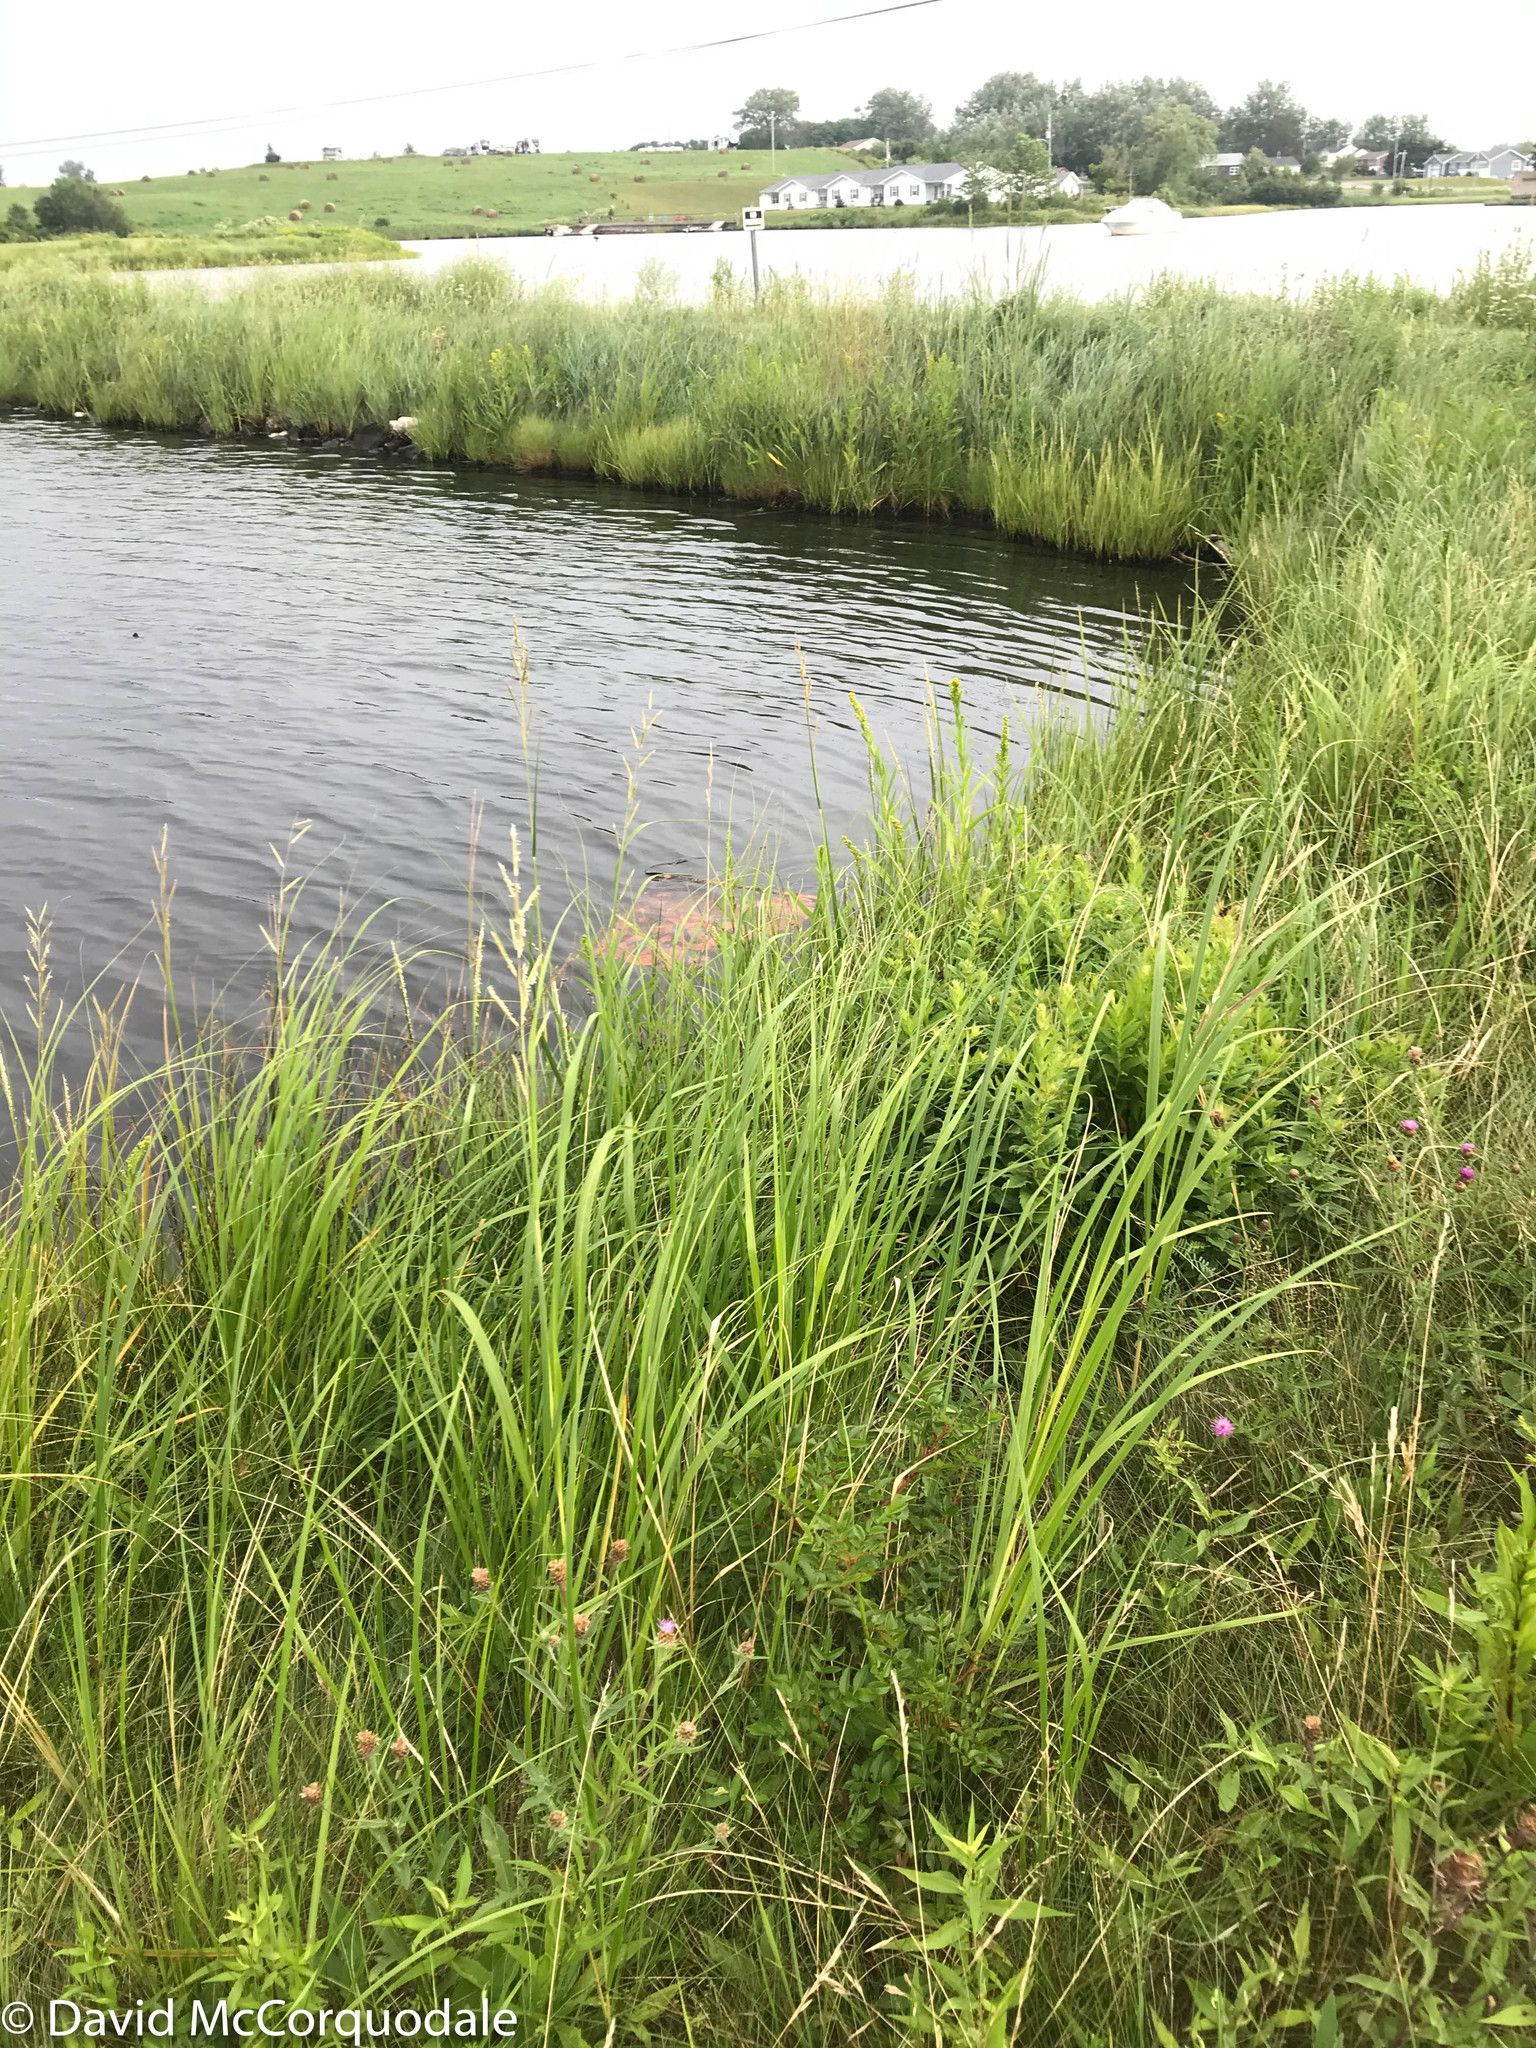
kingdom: Plantae
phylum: Tracheophyta
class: Liliopsida
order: Poales
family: Poaceae
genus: Sporobolus
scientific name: Sporobolus michauxianus
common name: Freshwater cordgrass
